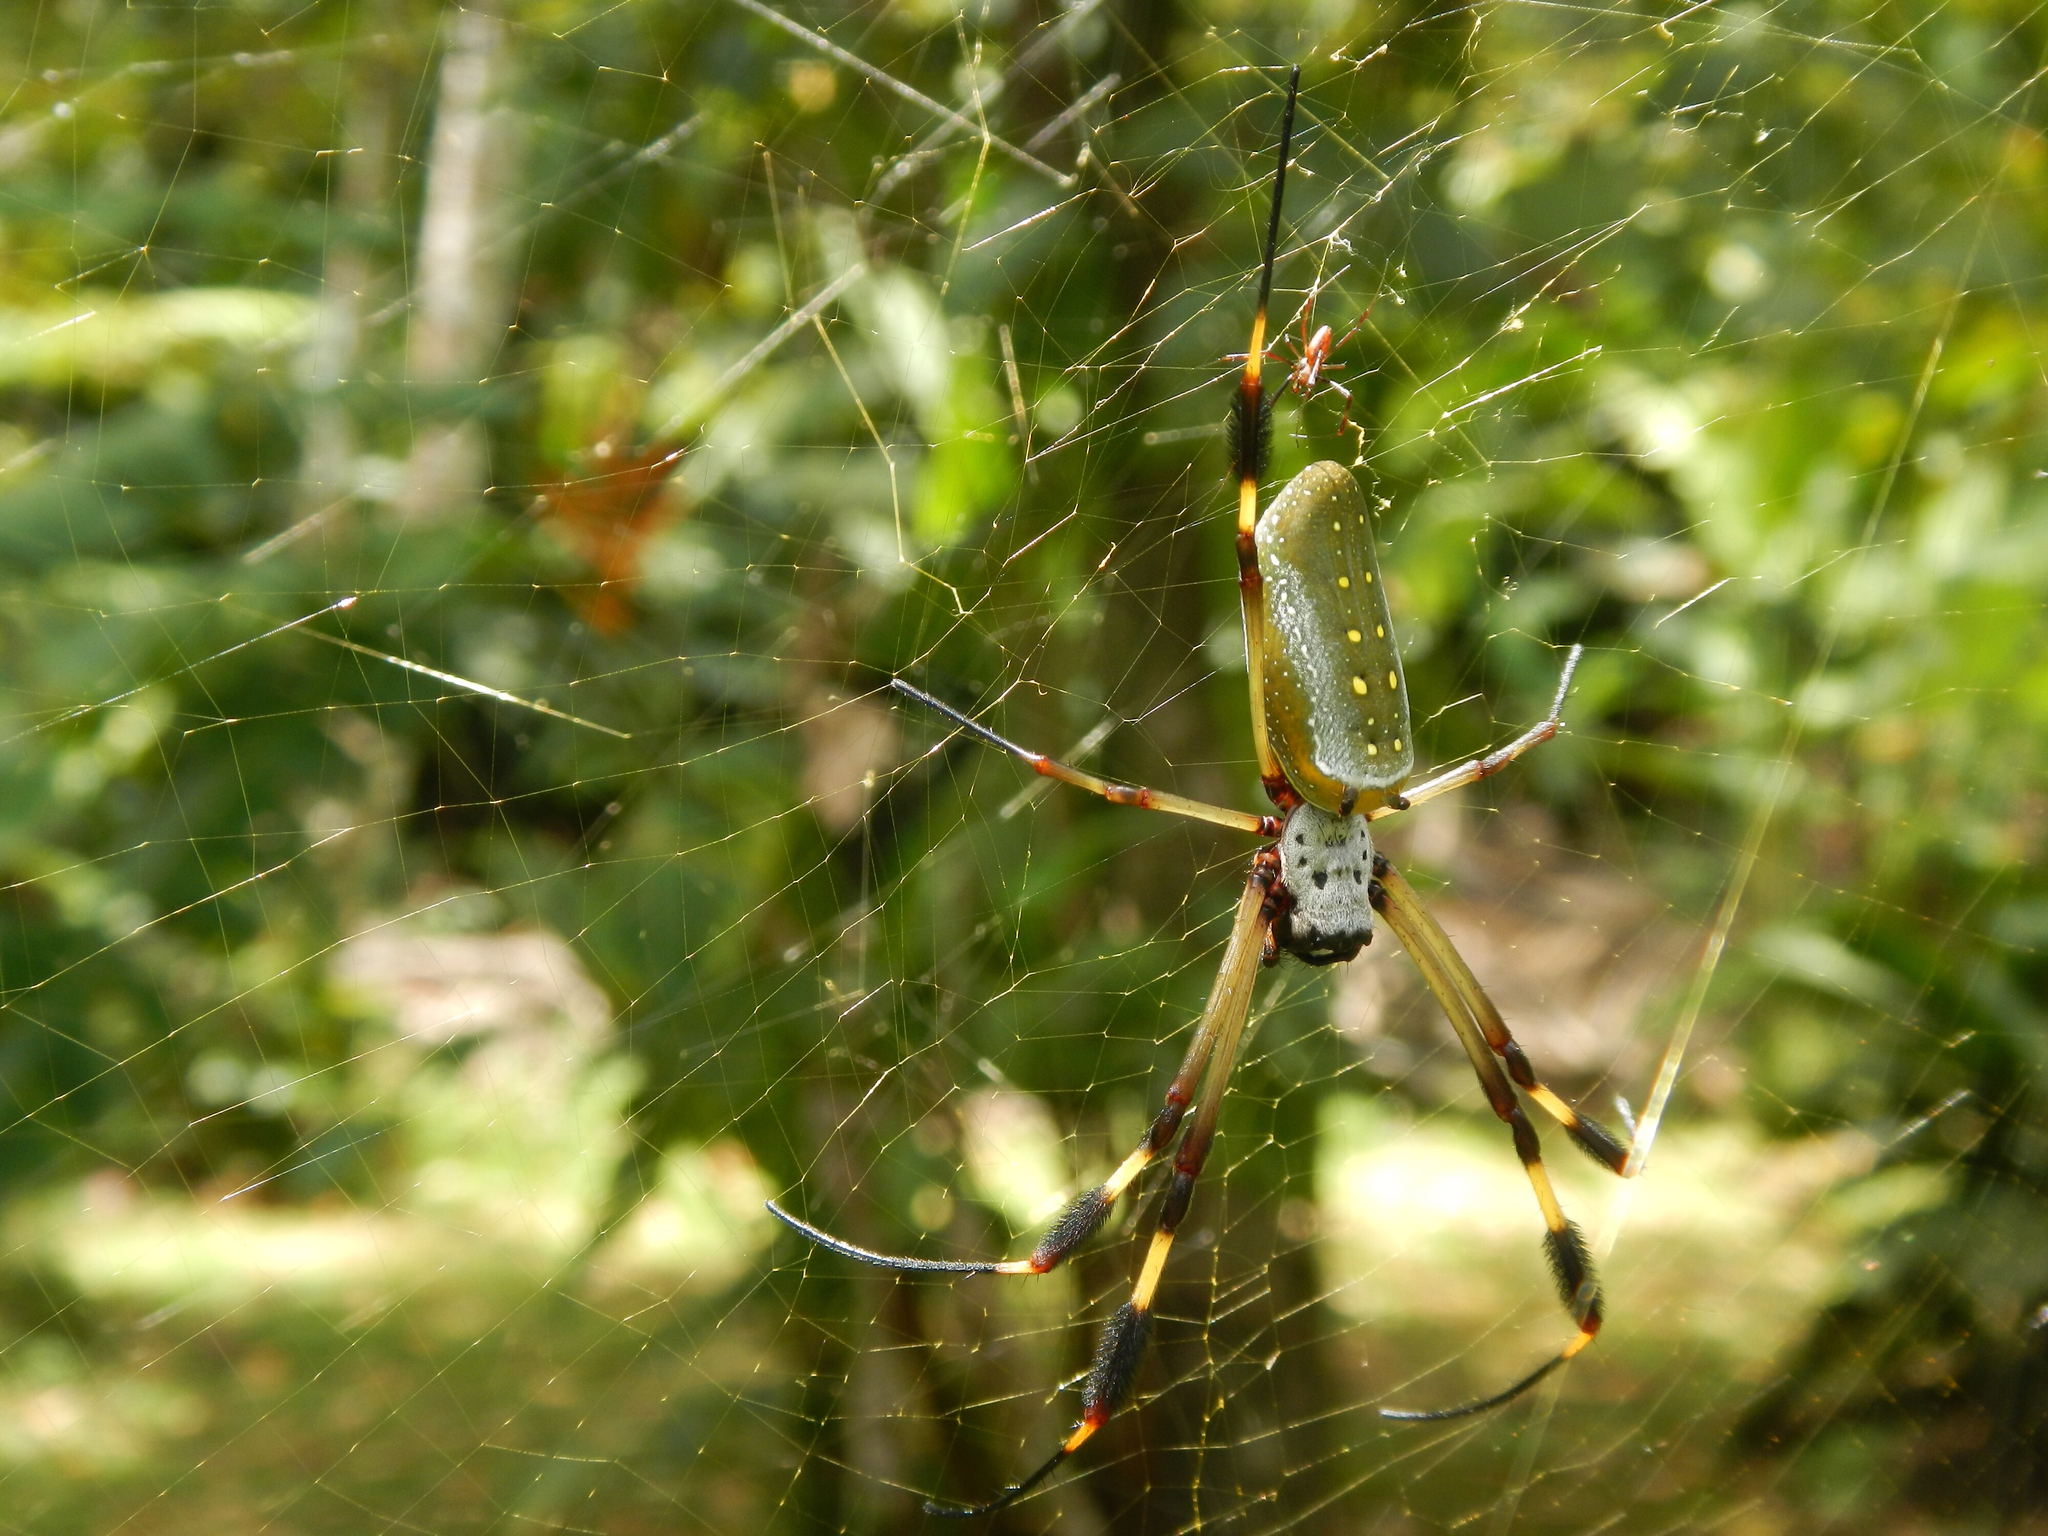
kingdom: Animalia
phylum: Arthropoda
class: Arachnida
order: Araneae
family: Araneidae
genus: Trichonephila
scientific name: Trichonephila clavipes
